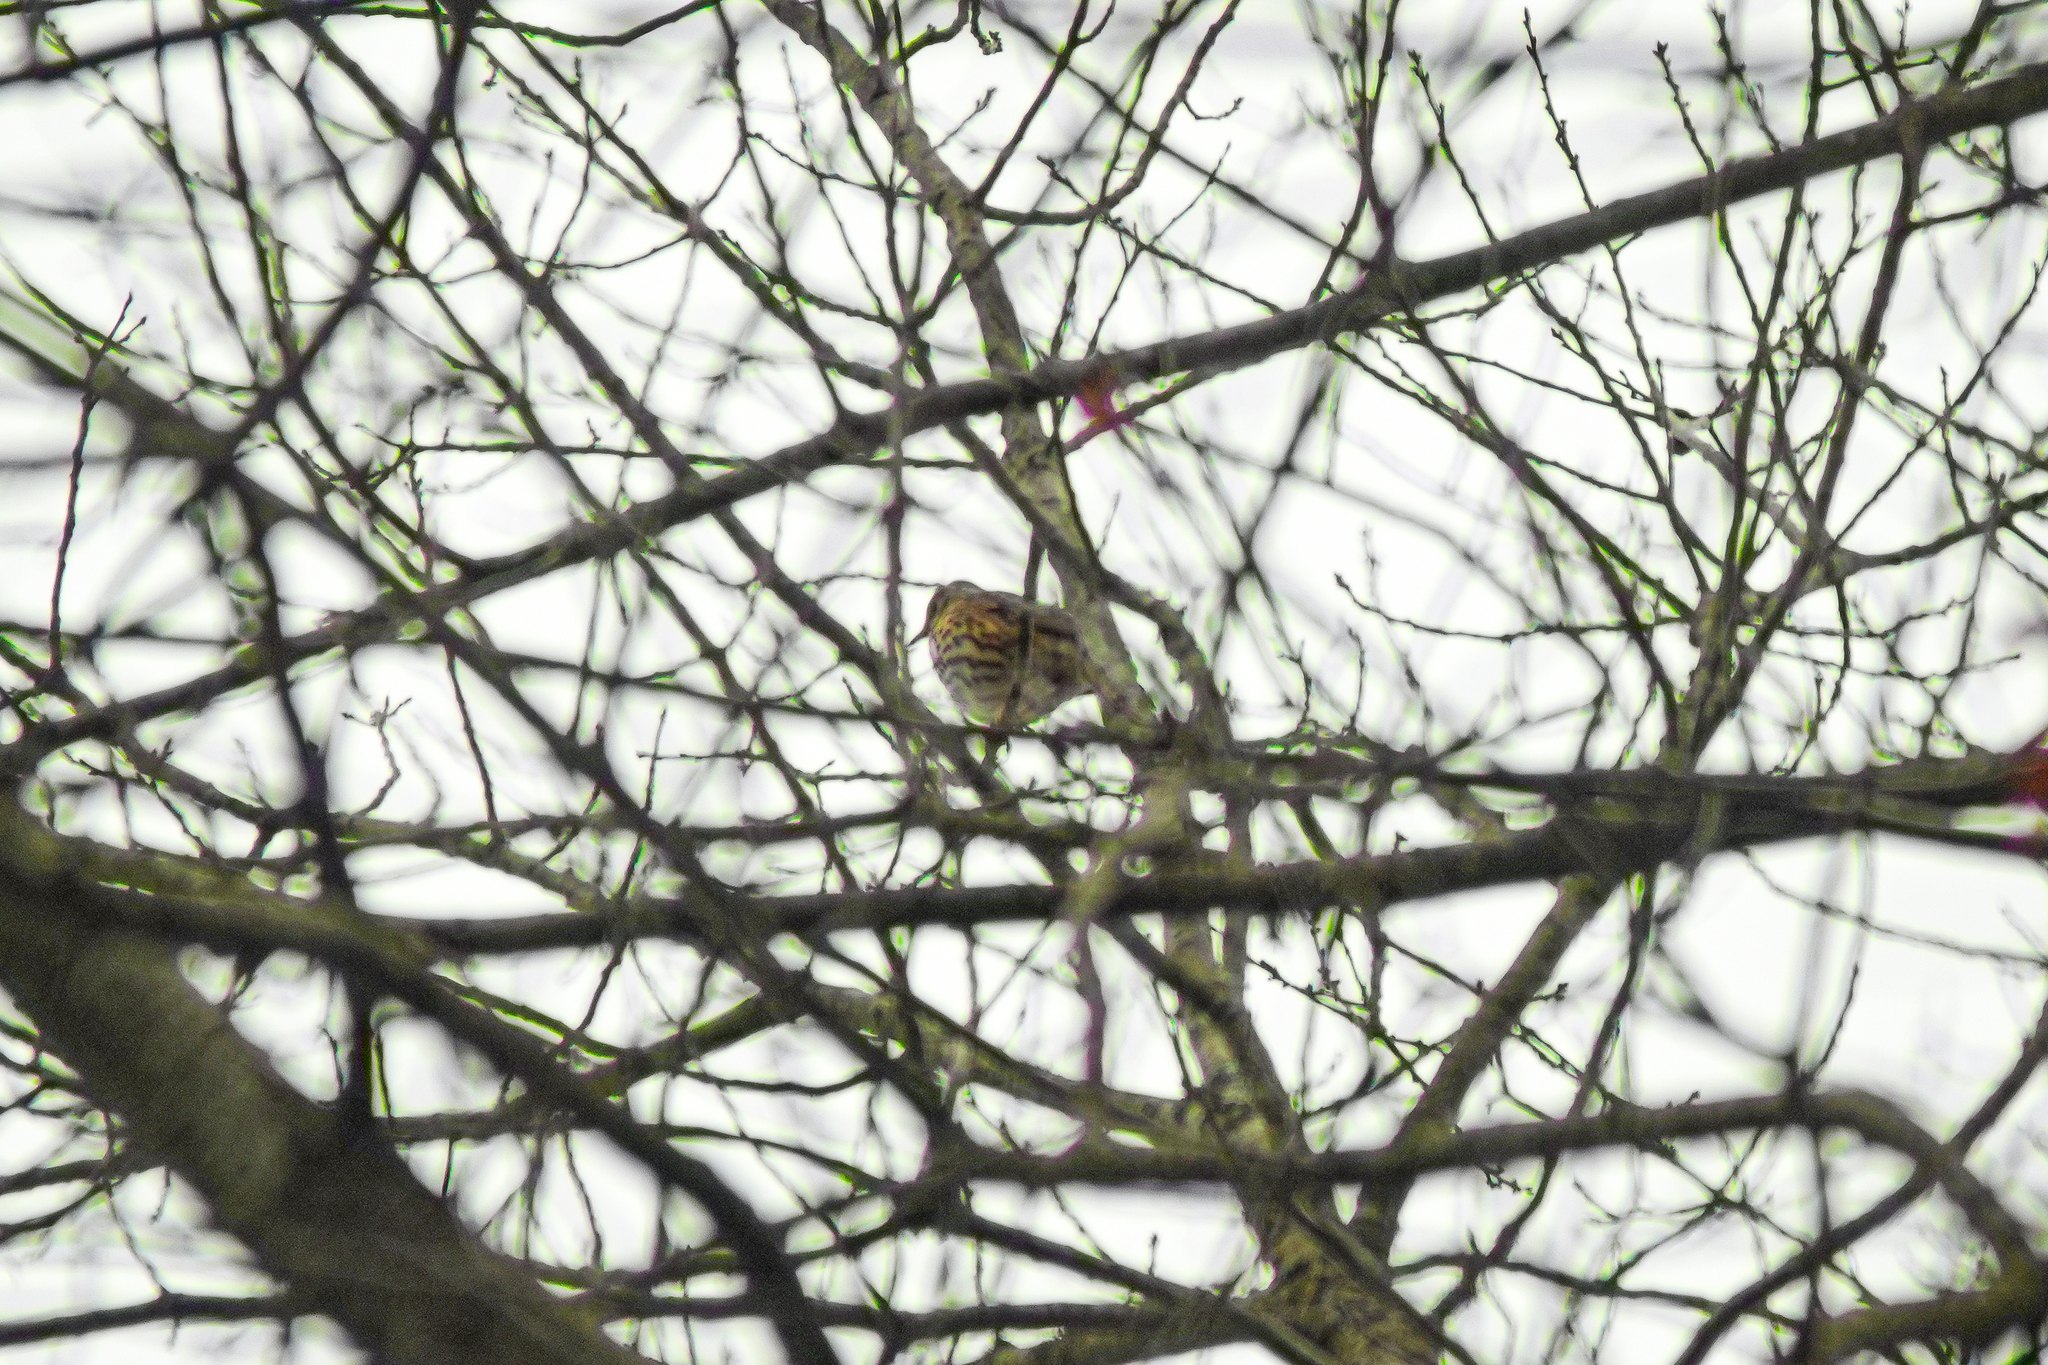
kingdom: Animalia
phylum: Chordata
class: Aves
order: Passeriformes
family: Turdidae
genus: Turdus
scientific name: Turdus philomelos
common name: Song thrush
